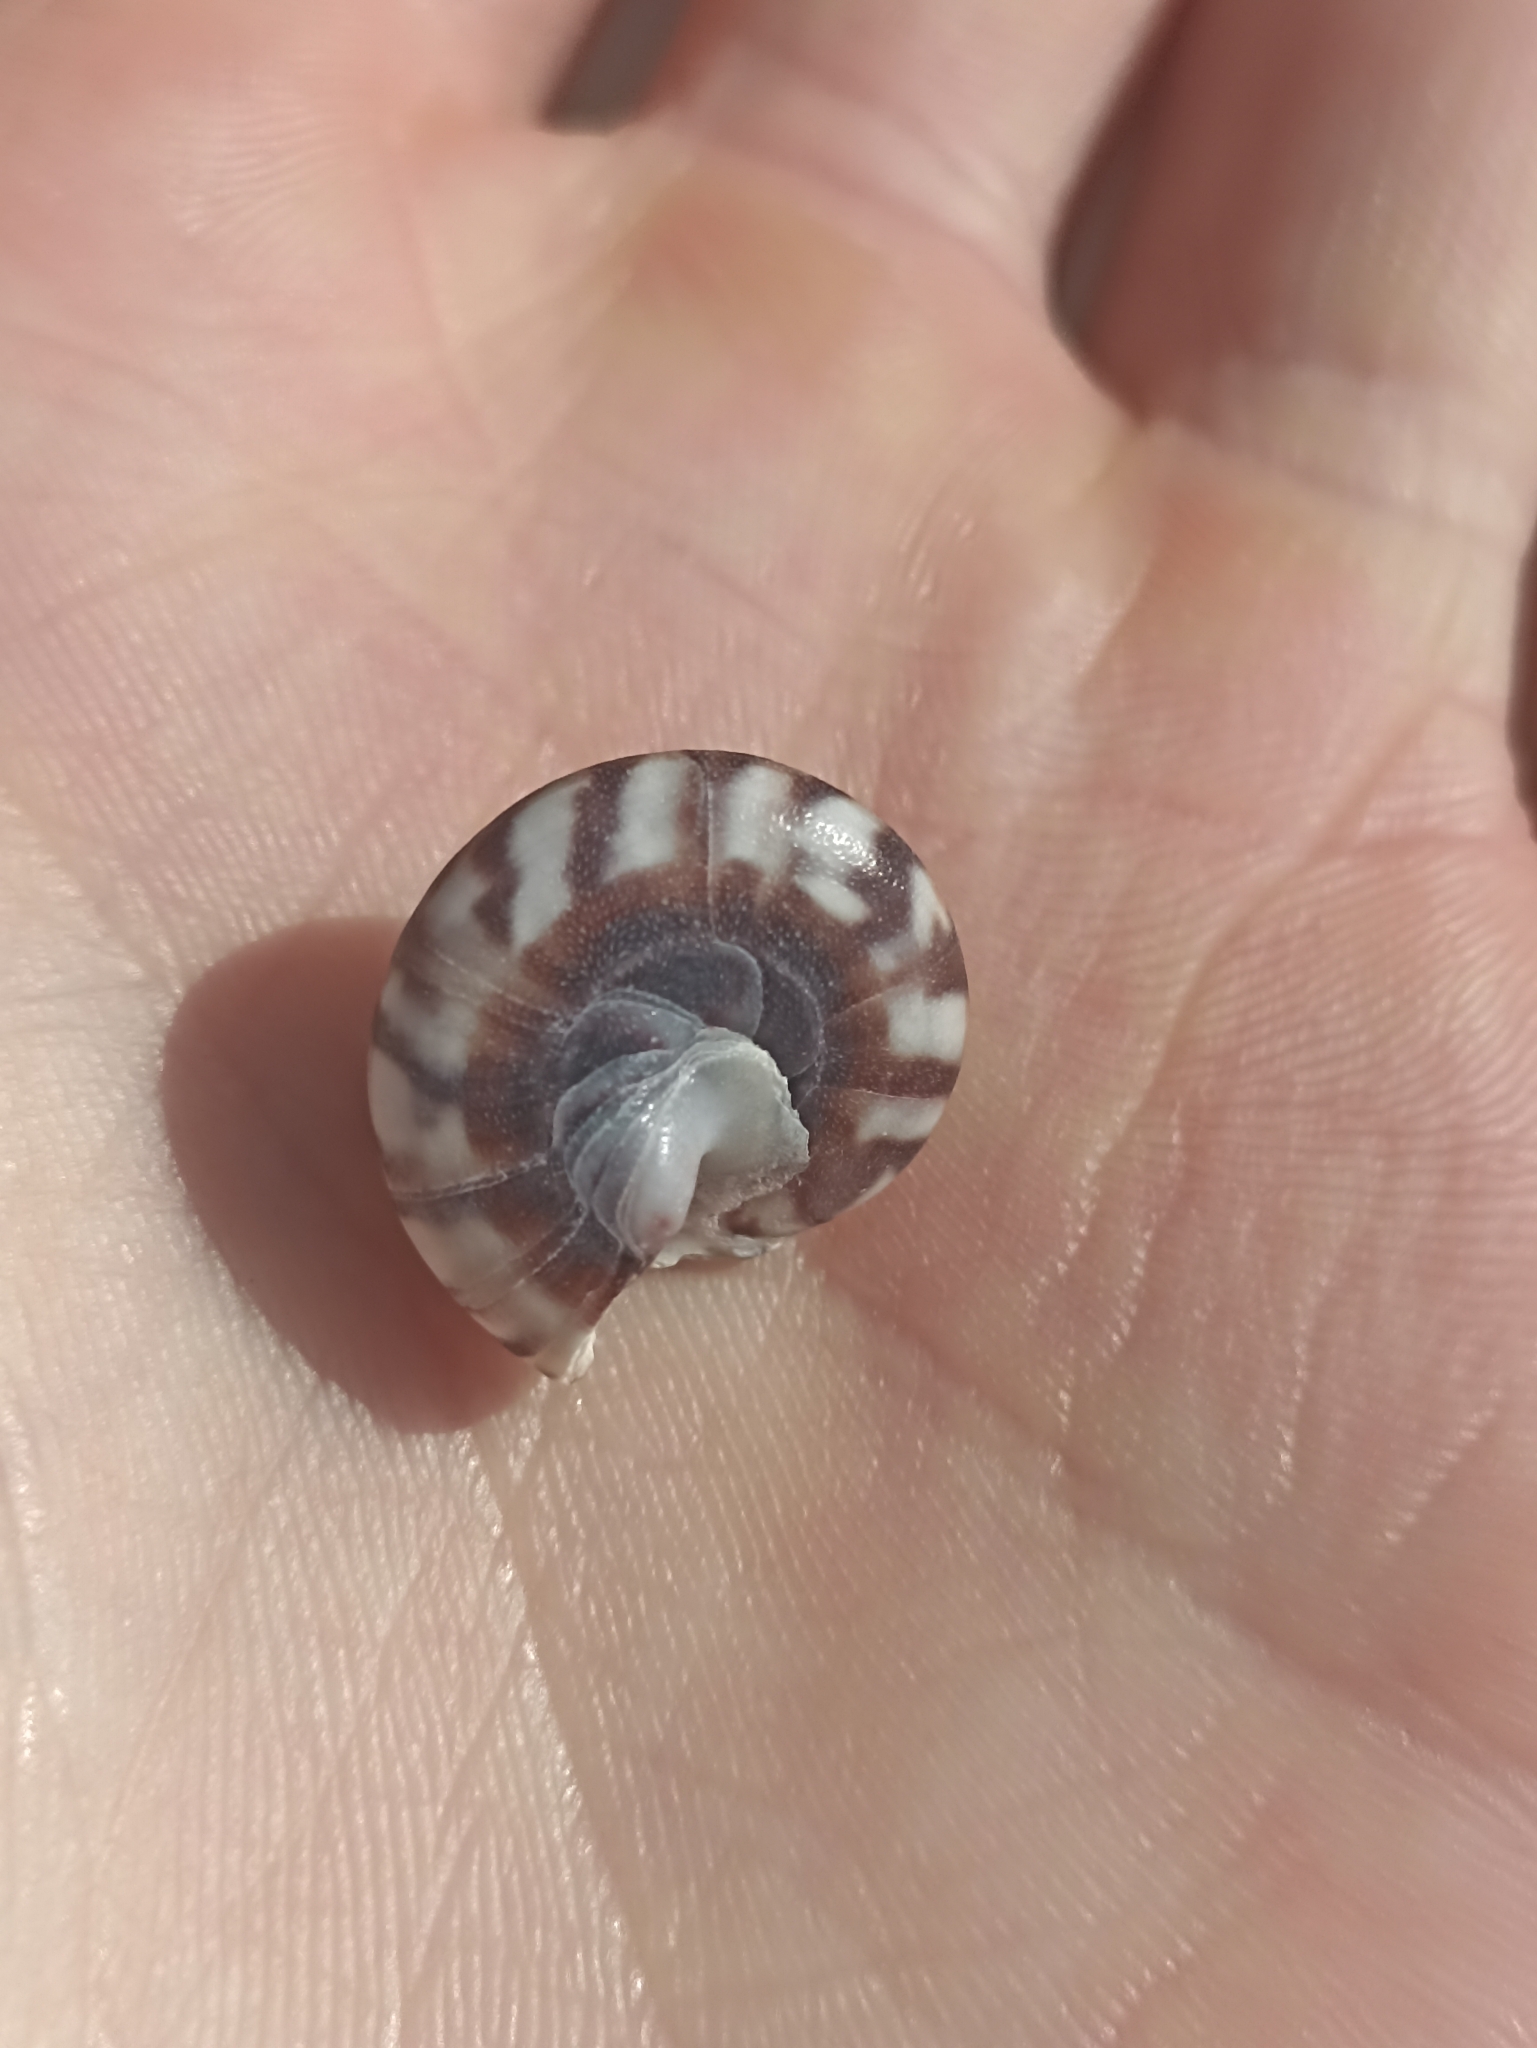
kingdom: Animalia
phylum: Mollusca
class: Gastropoda
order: Trochida
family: Trochidae
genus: Zethalia
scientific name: Zethalia zelandica
